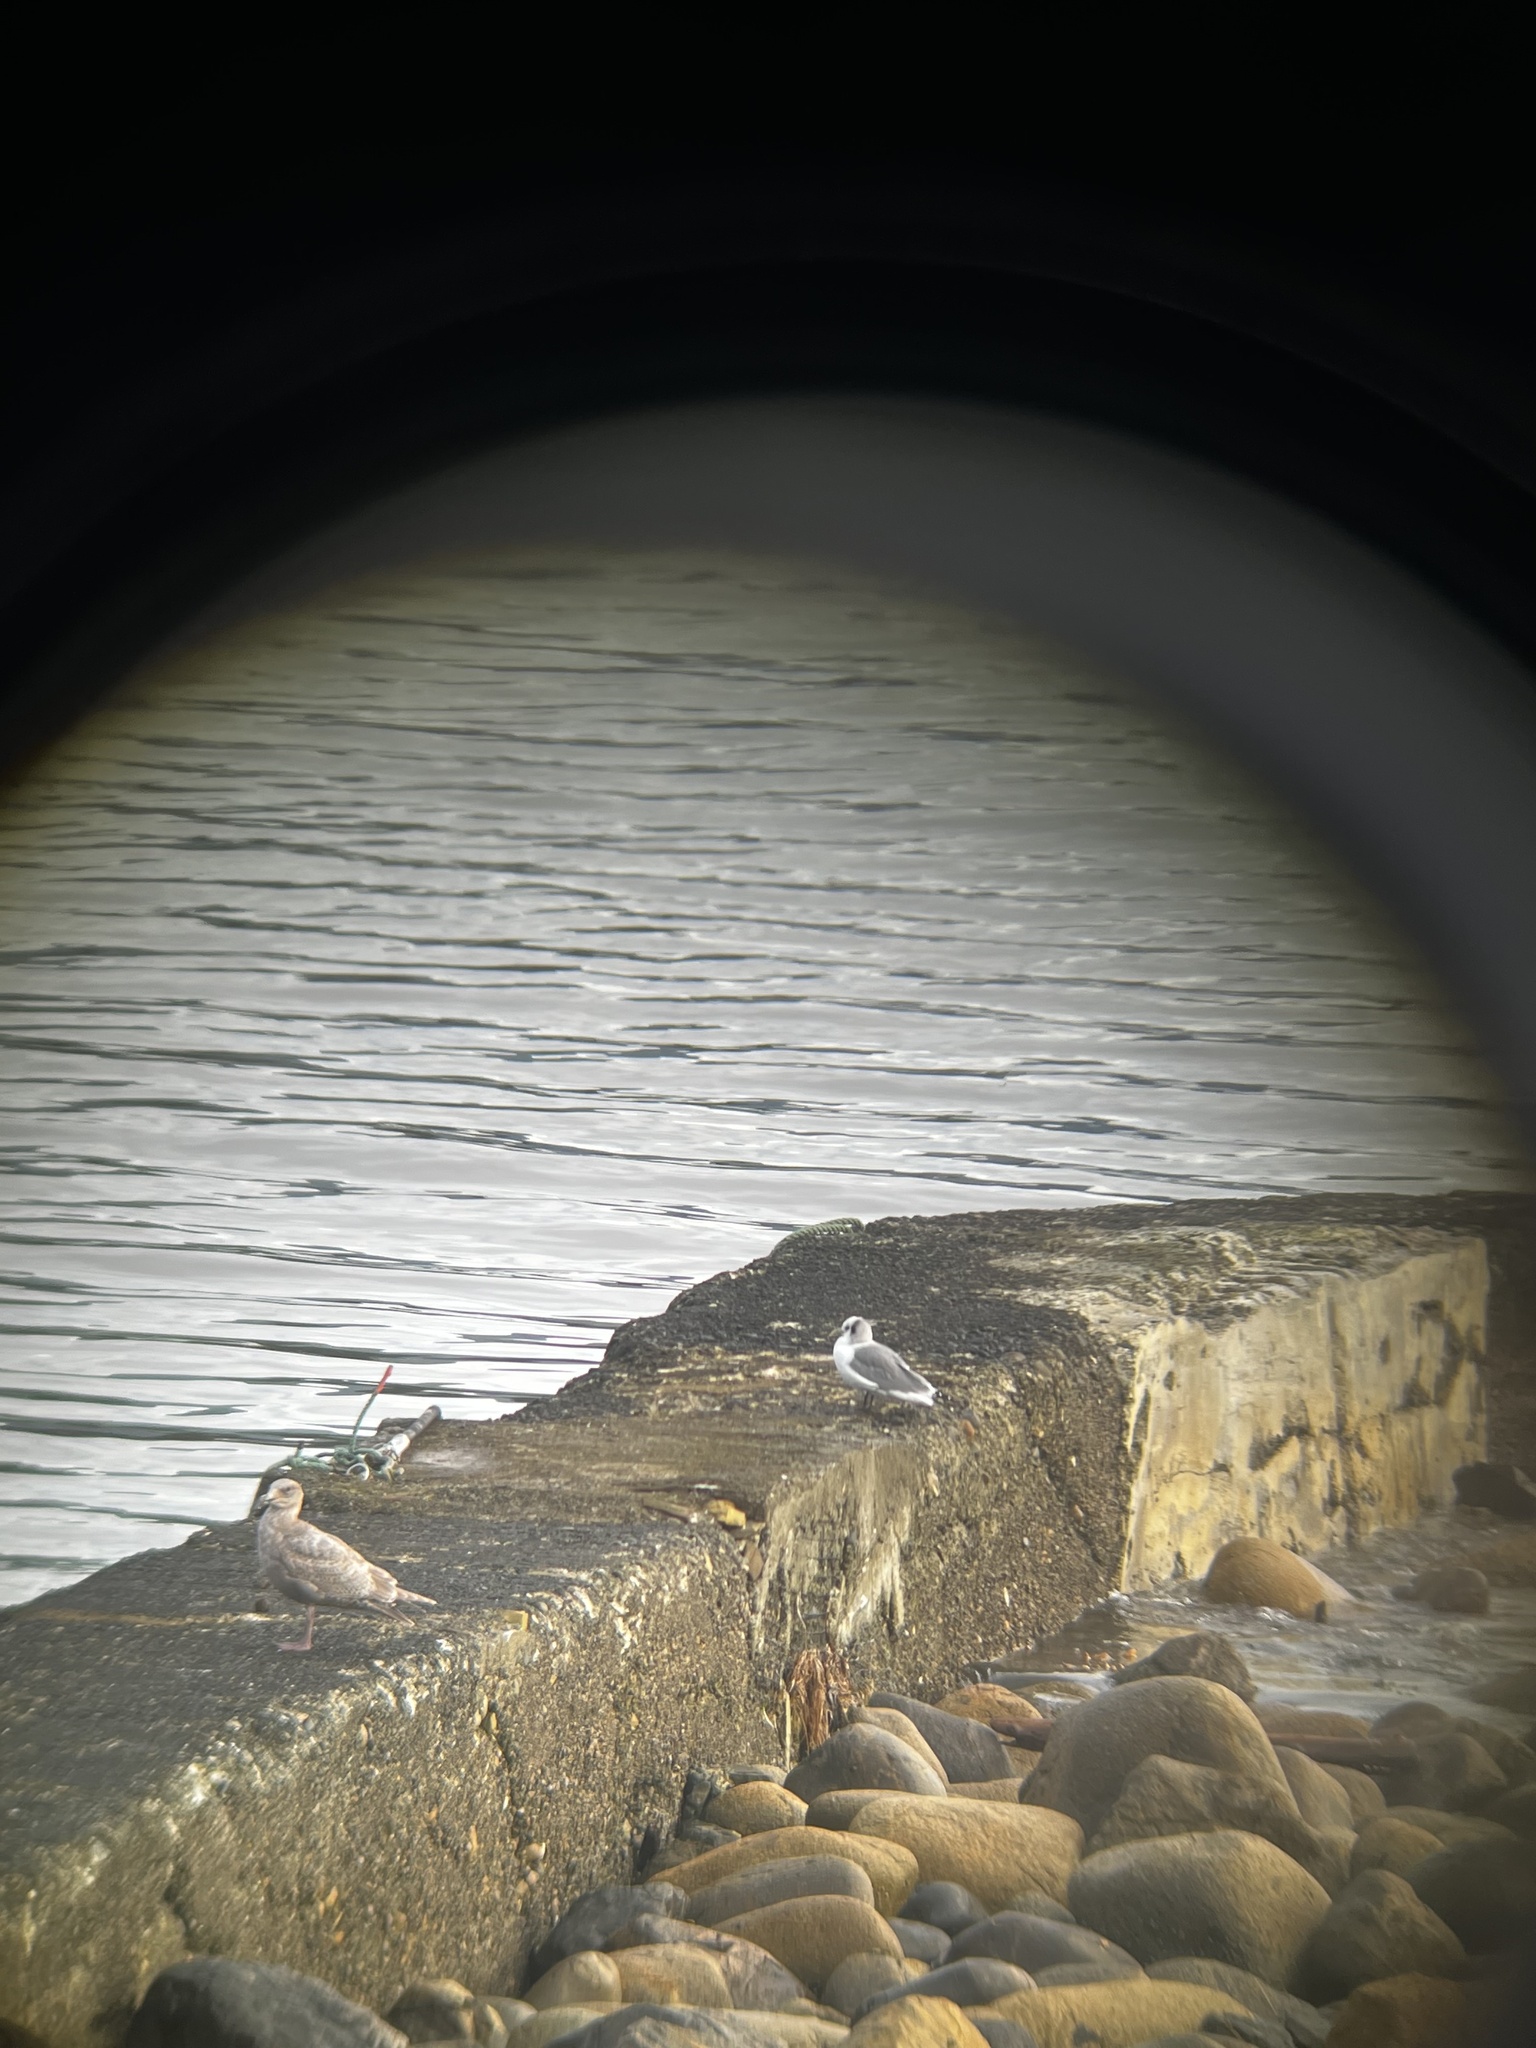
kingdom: Animalia
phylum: Chordata
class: Aves
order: Charadriiformes
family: Laridae
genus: Rissa
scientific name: Rissa tridactyla
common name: Black-legged kittiwake
